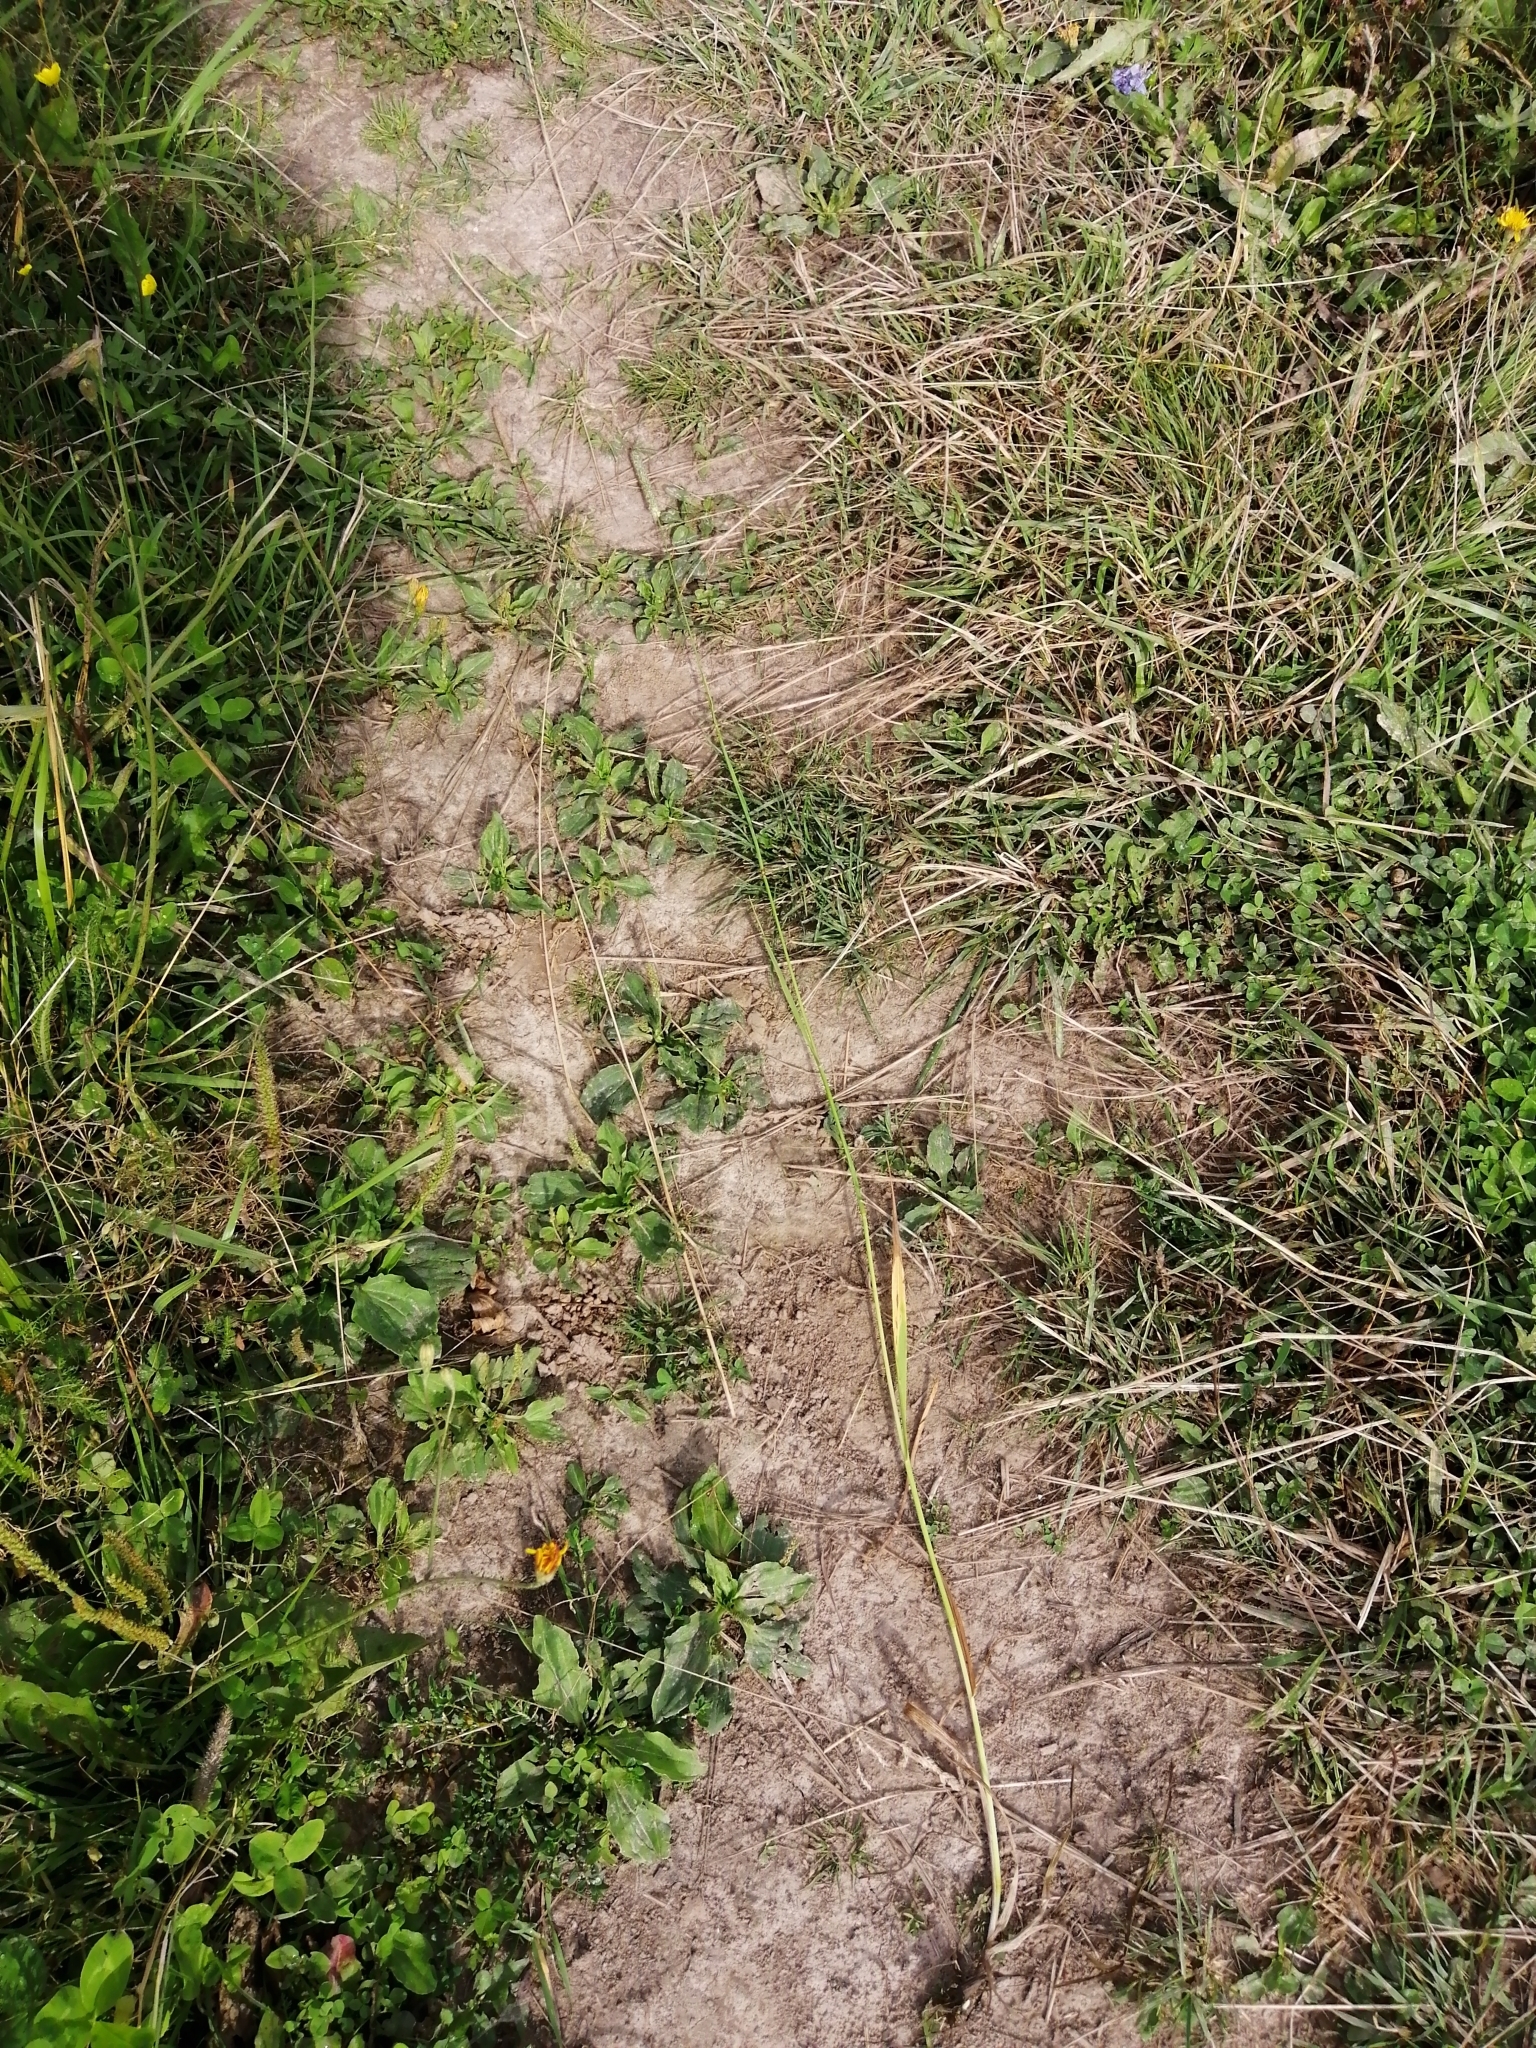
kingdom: Plantae
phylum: Tracheophyta
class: Liliopsida
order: Poales
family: Poaceae
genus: Phleum
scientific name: Phleum pratense
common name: Timothy grass
